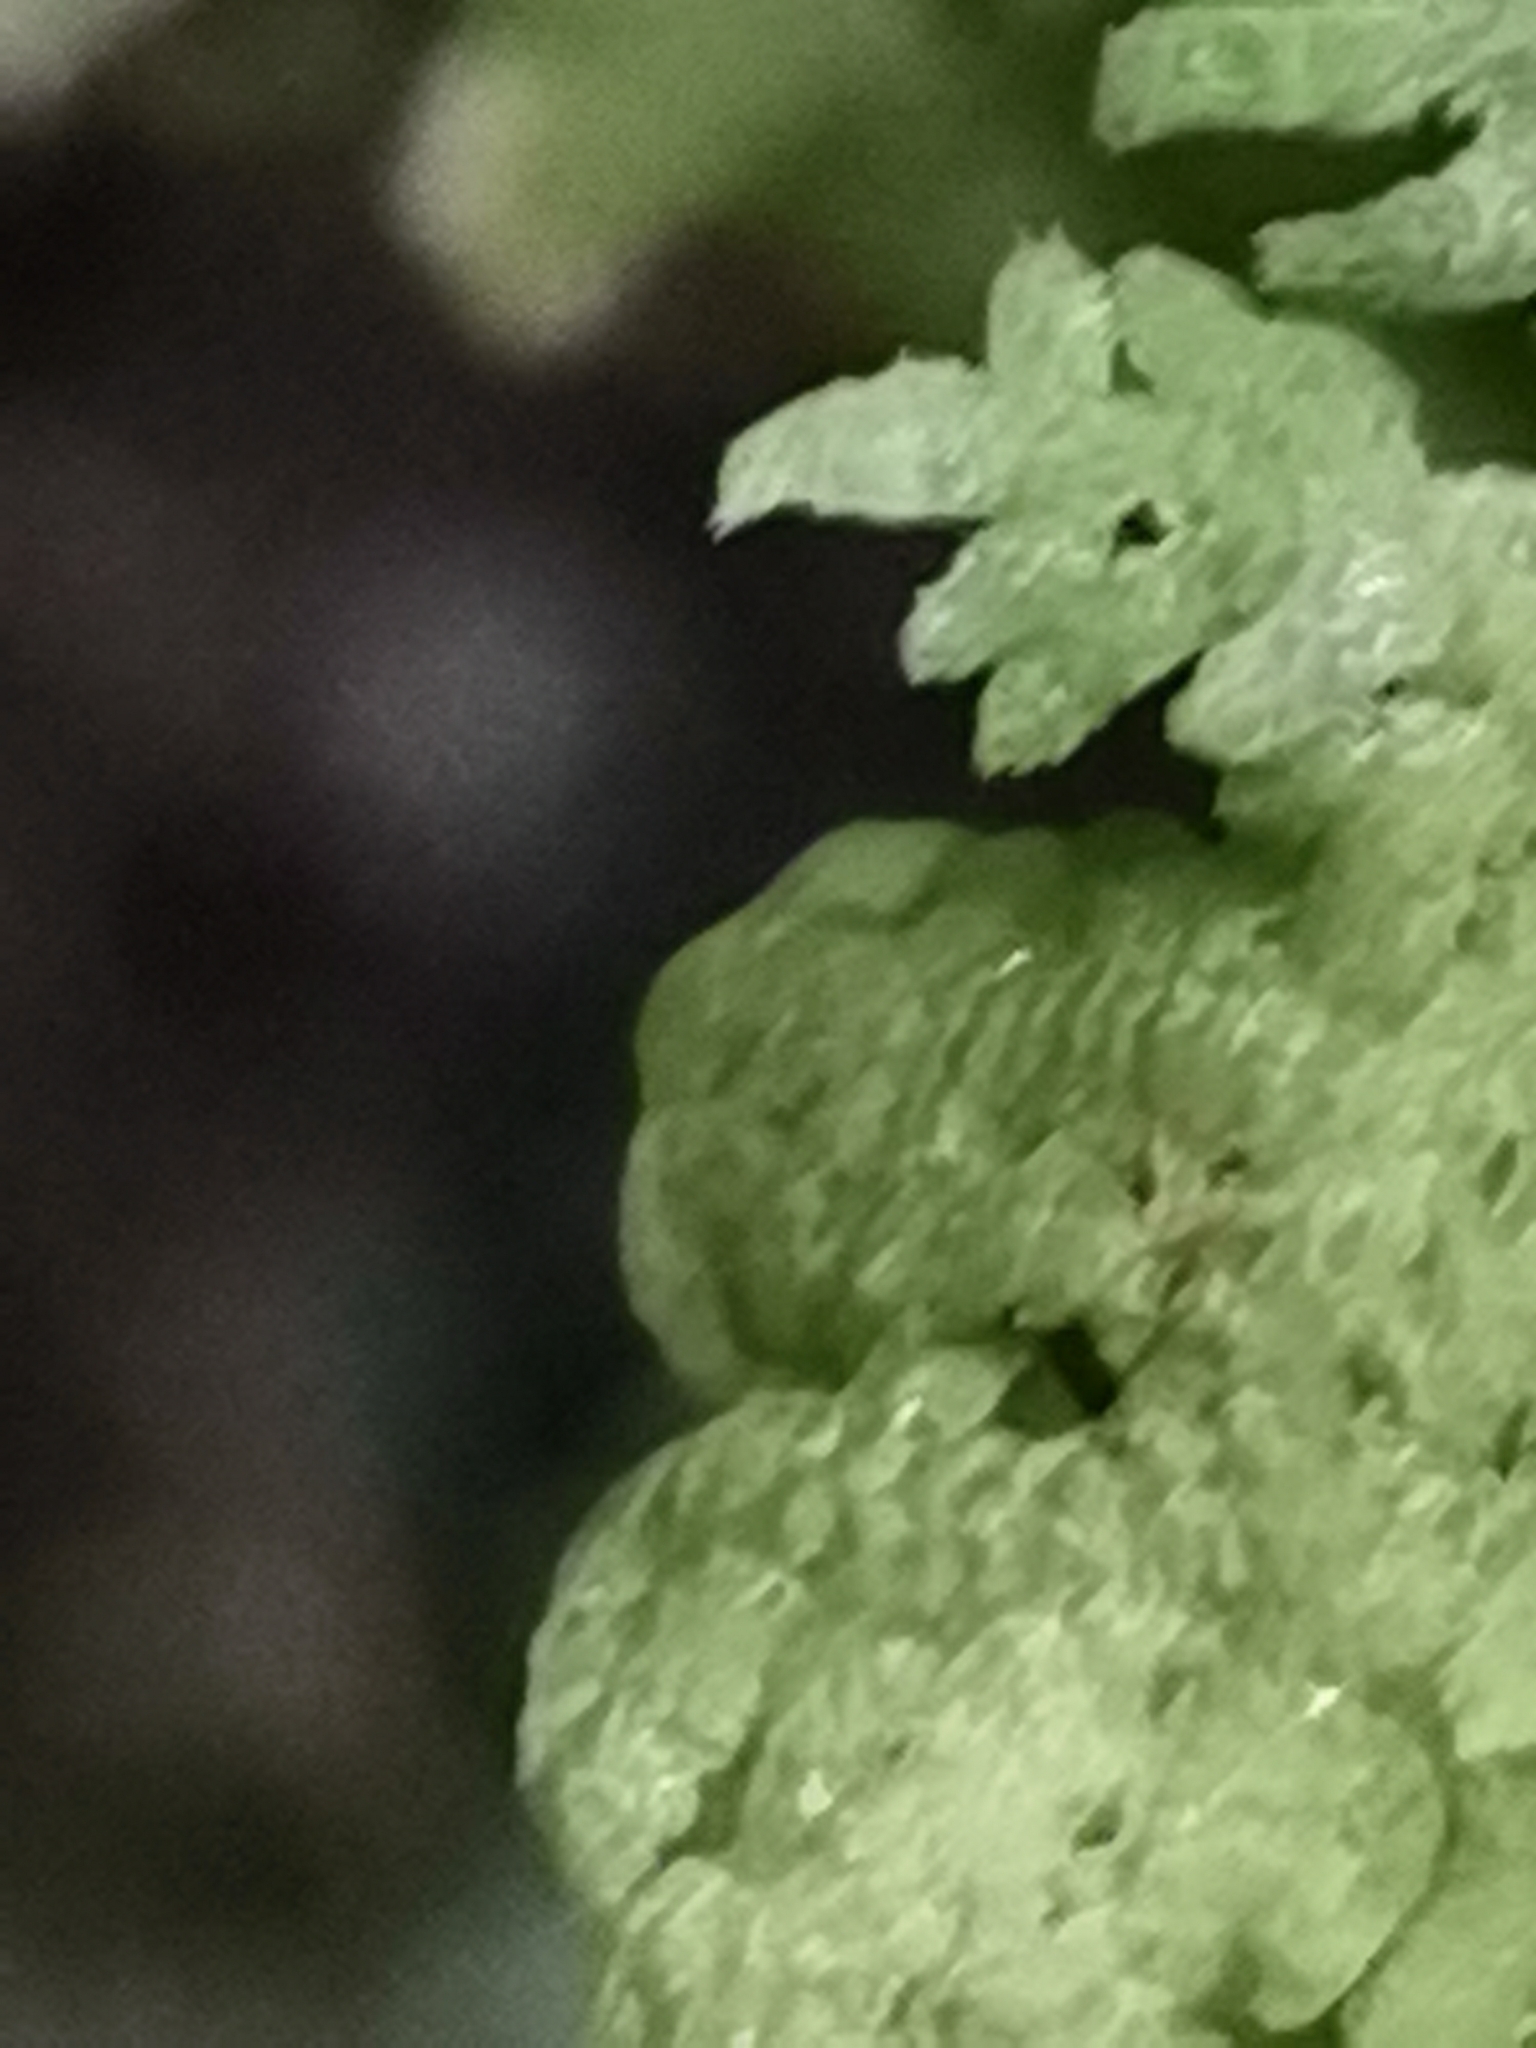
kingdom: Plantae
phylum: Marchantiophyta
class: Jungermanniopsida
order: Jungermanniales
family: Trichocoleaceae
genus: Trichocolea
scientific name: Trichocolea tomentella
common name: Woolly liverwort
